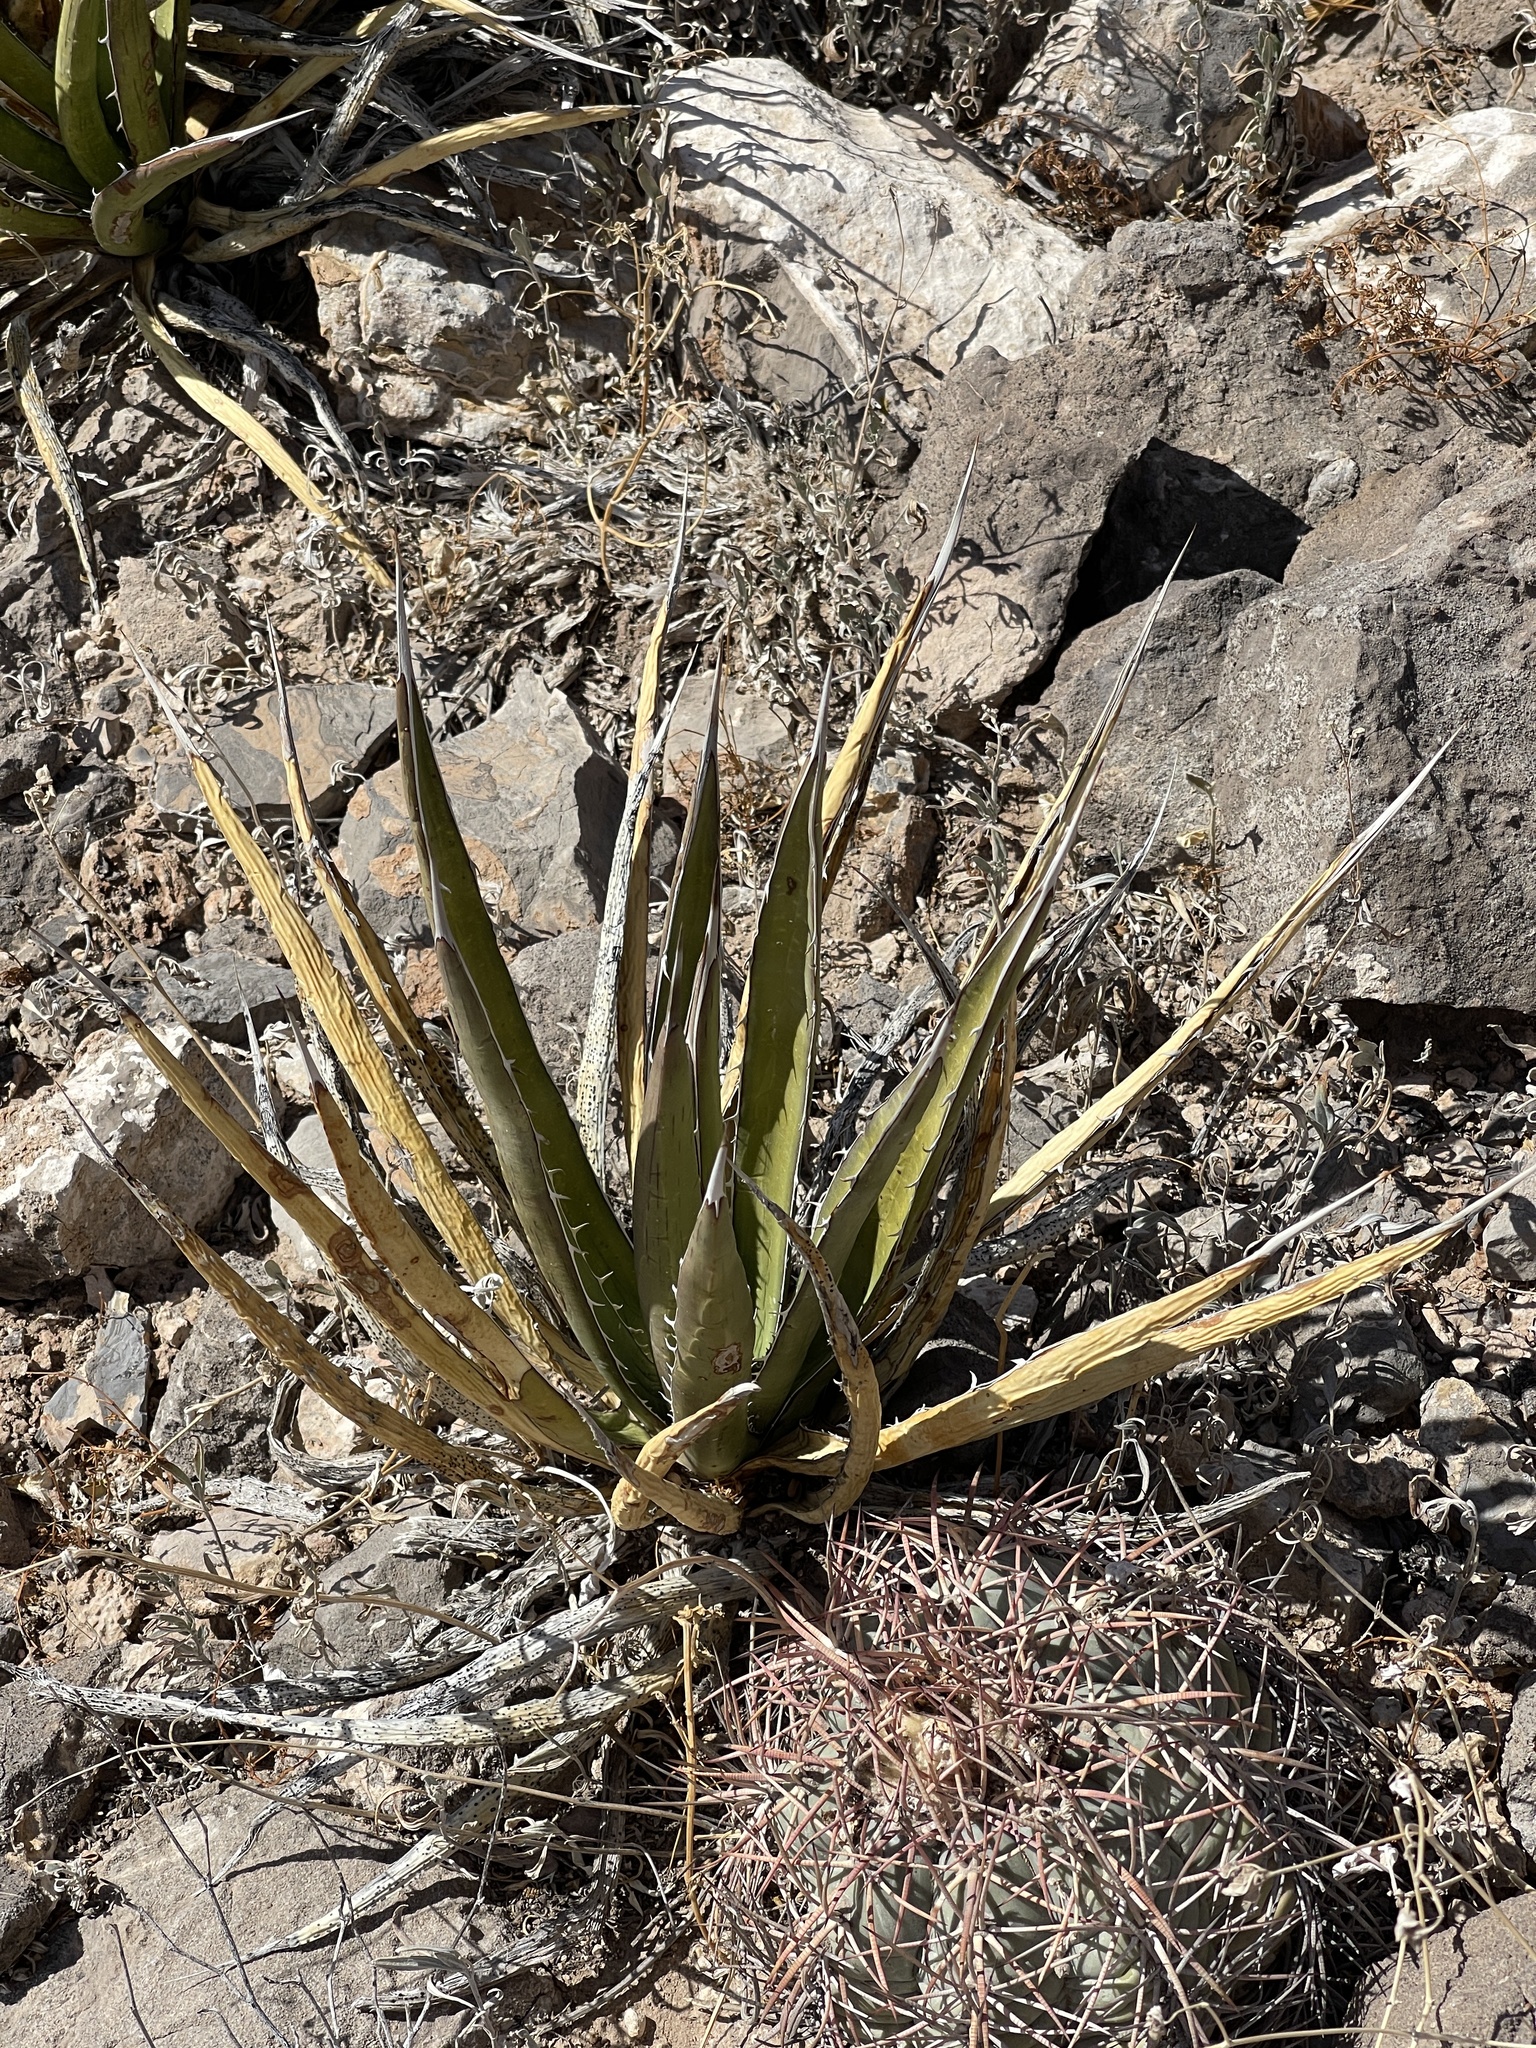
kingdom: Plantae
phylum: Tracheophyta
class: Liliopsida
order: Asparagales
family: Asparagaceae
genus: Agave
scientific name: Agave lechuguilla
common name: Lecheguilla agave
